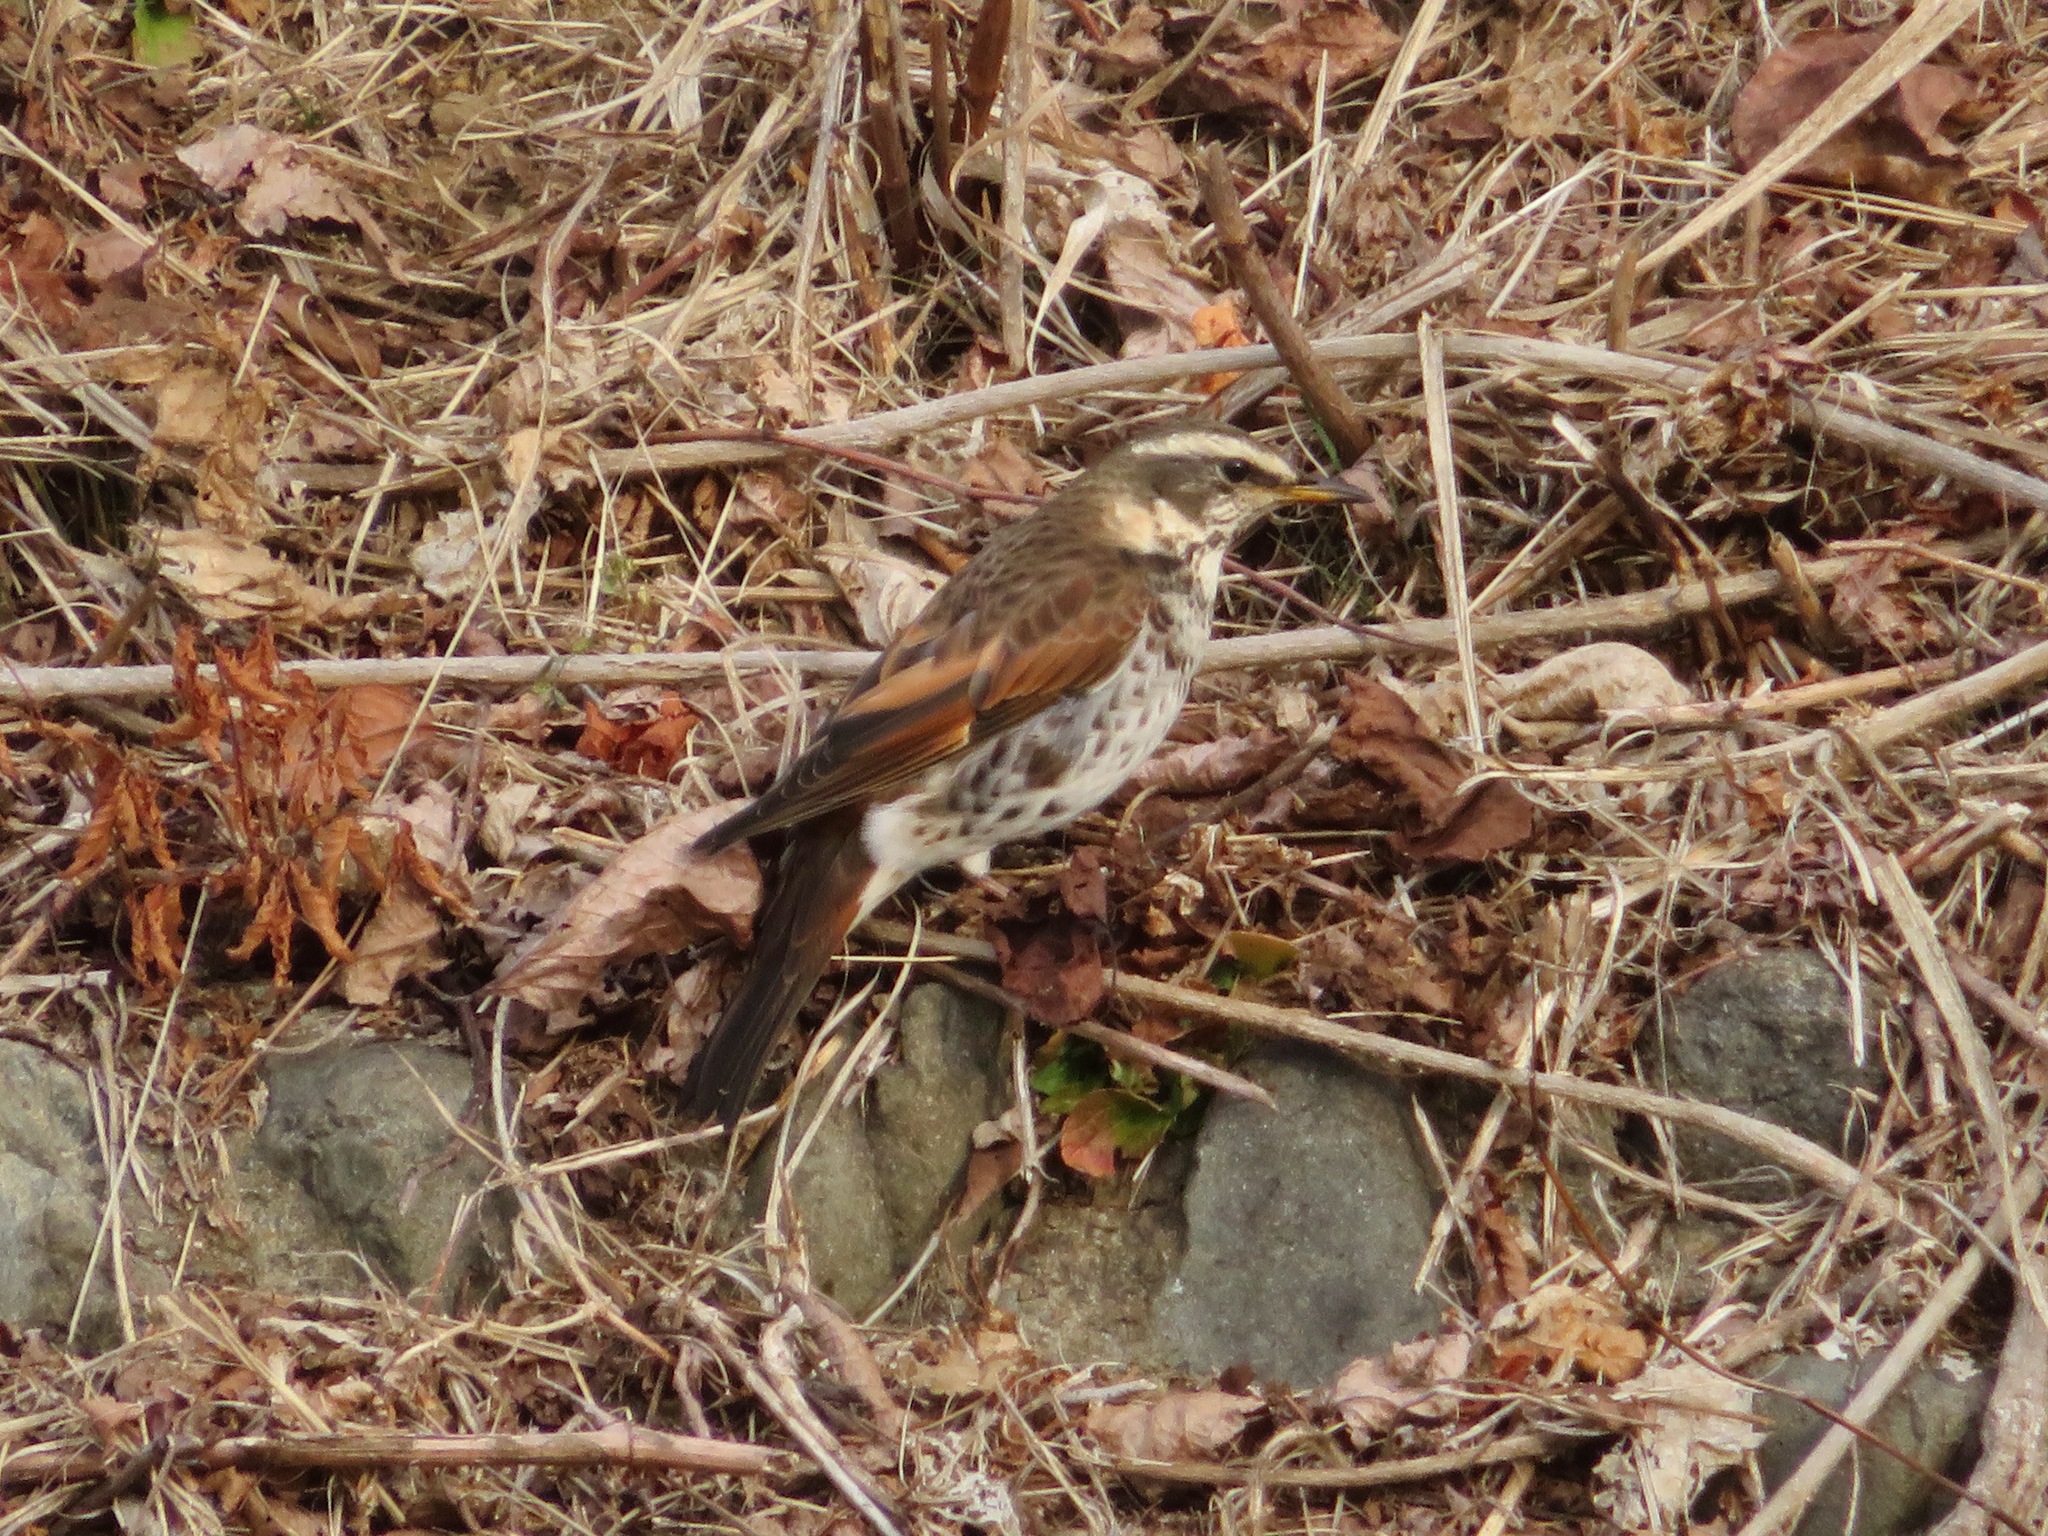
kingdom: Animalia
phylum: Chordata
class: Aves
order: Passeriformes
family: Turdidae
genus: Turdus
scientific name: Turdus eunomus
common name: Dusky thrush
